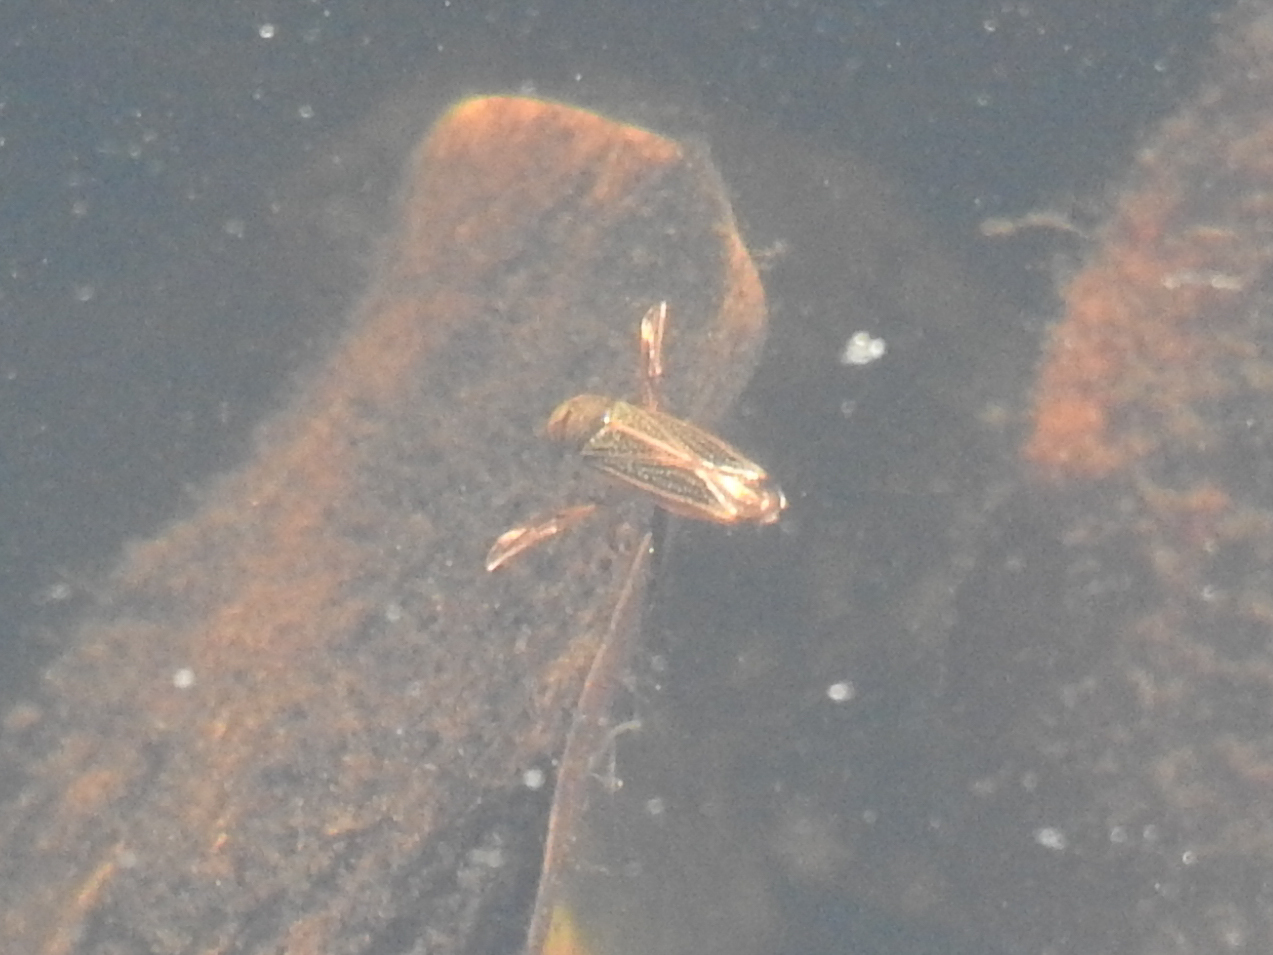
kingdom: Animalia
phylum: Arthropoda
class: Insecta
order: Hemiptera
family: Corixidae
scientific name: Corixidae
